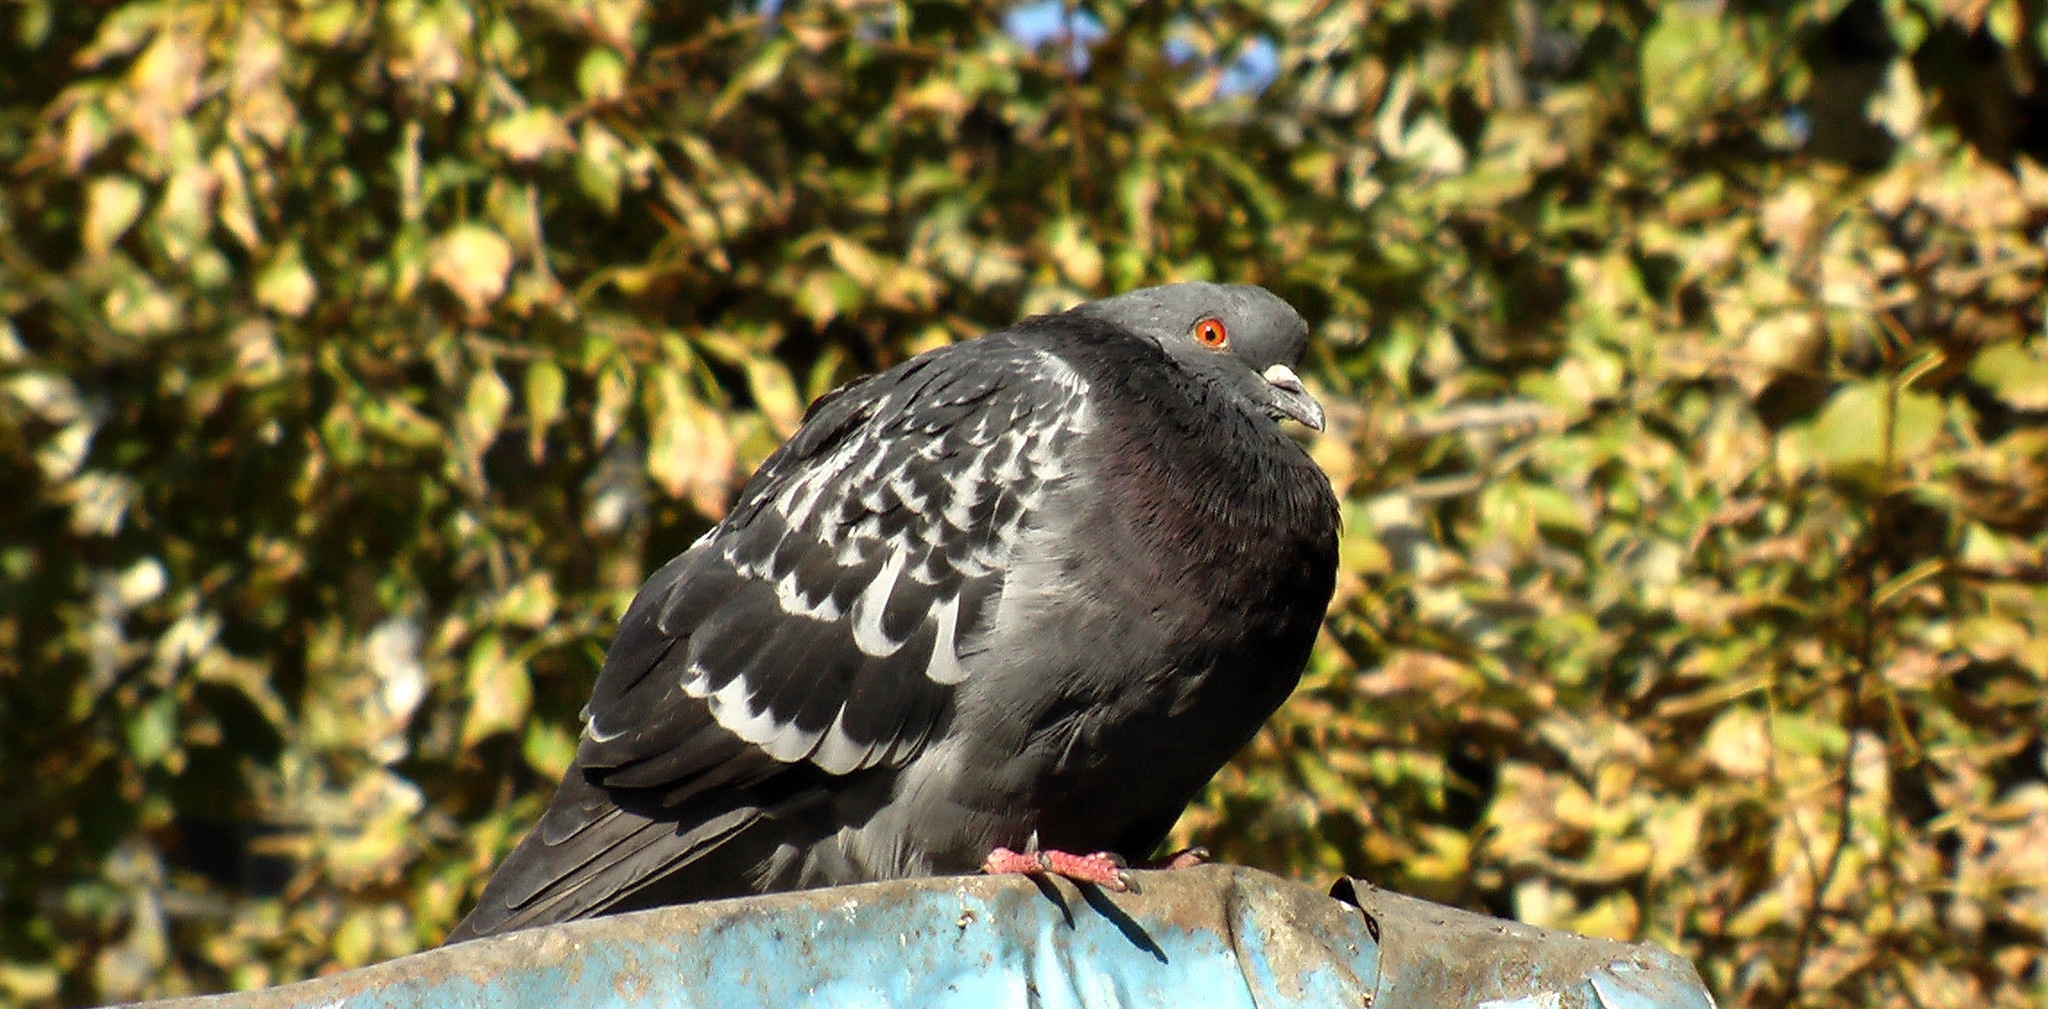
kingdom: Animalia
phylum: Chordata
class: Aves
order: Columbiformes
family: Columbidae
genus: Columba
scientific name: Columba livia
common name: Rock pigeon
